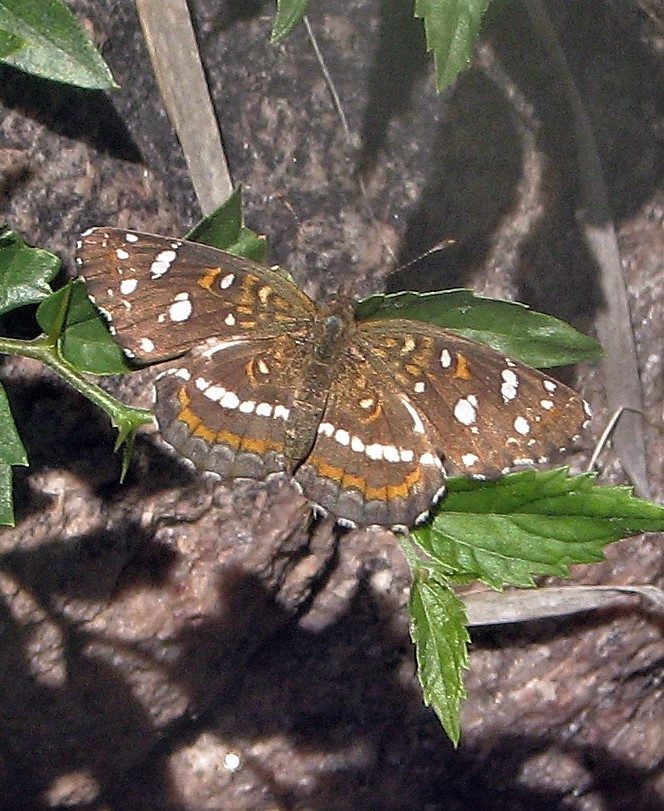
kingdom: Animalia
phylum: Arthropoda
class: Insecta
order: Lepidoptera
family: Nymphalidae
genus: Ortilia
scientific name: Ortilia ithra
